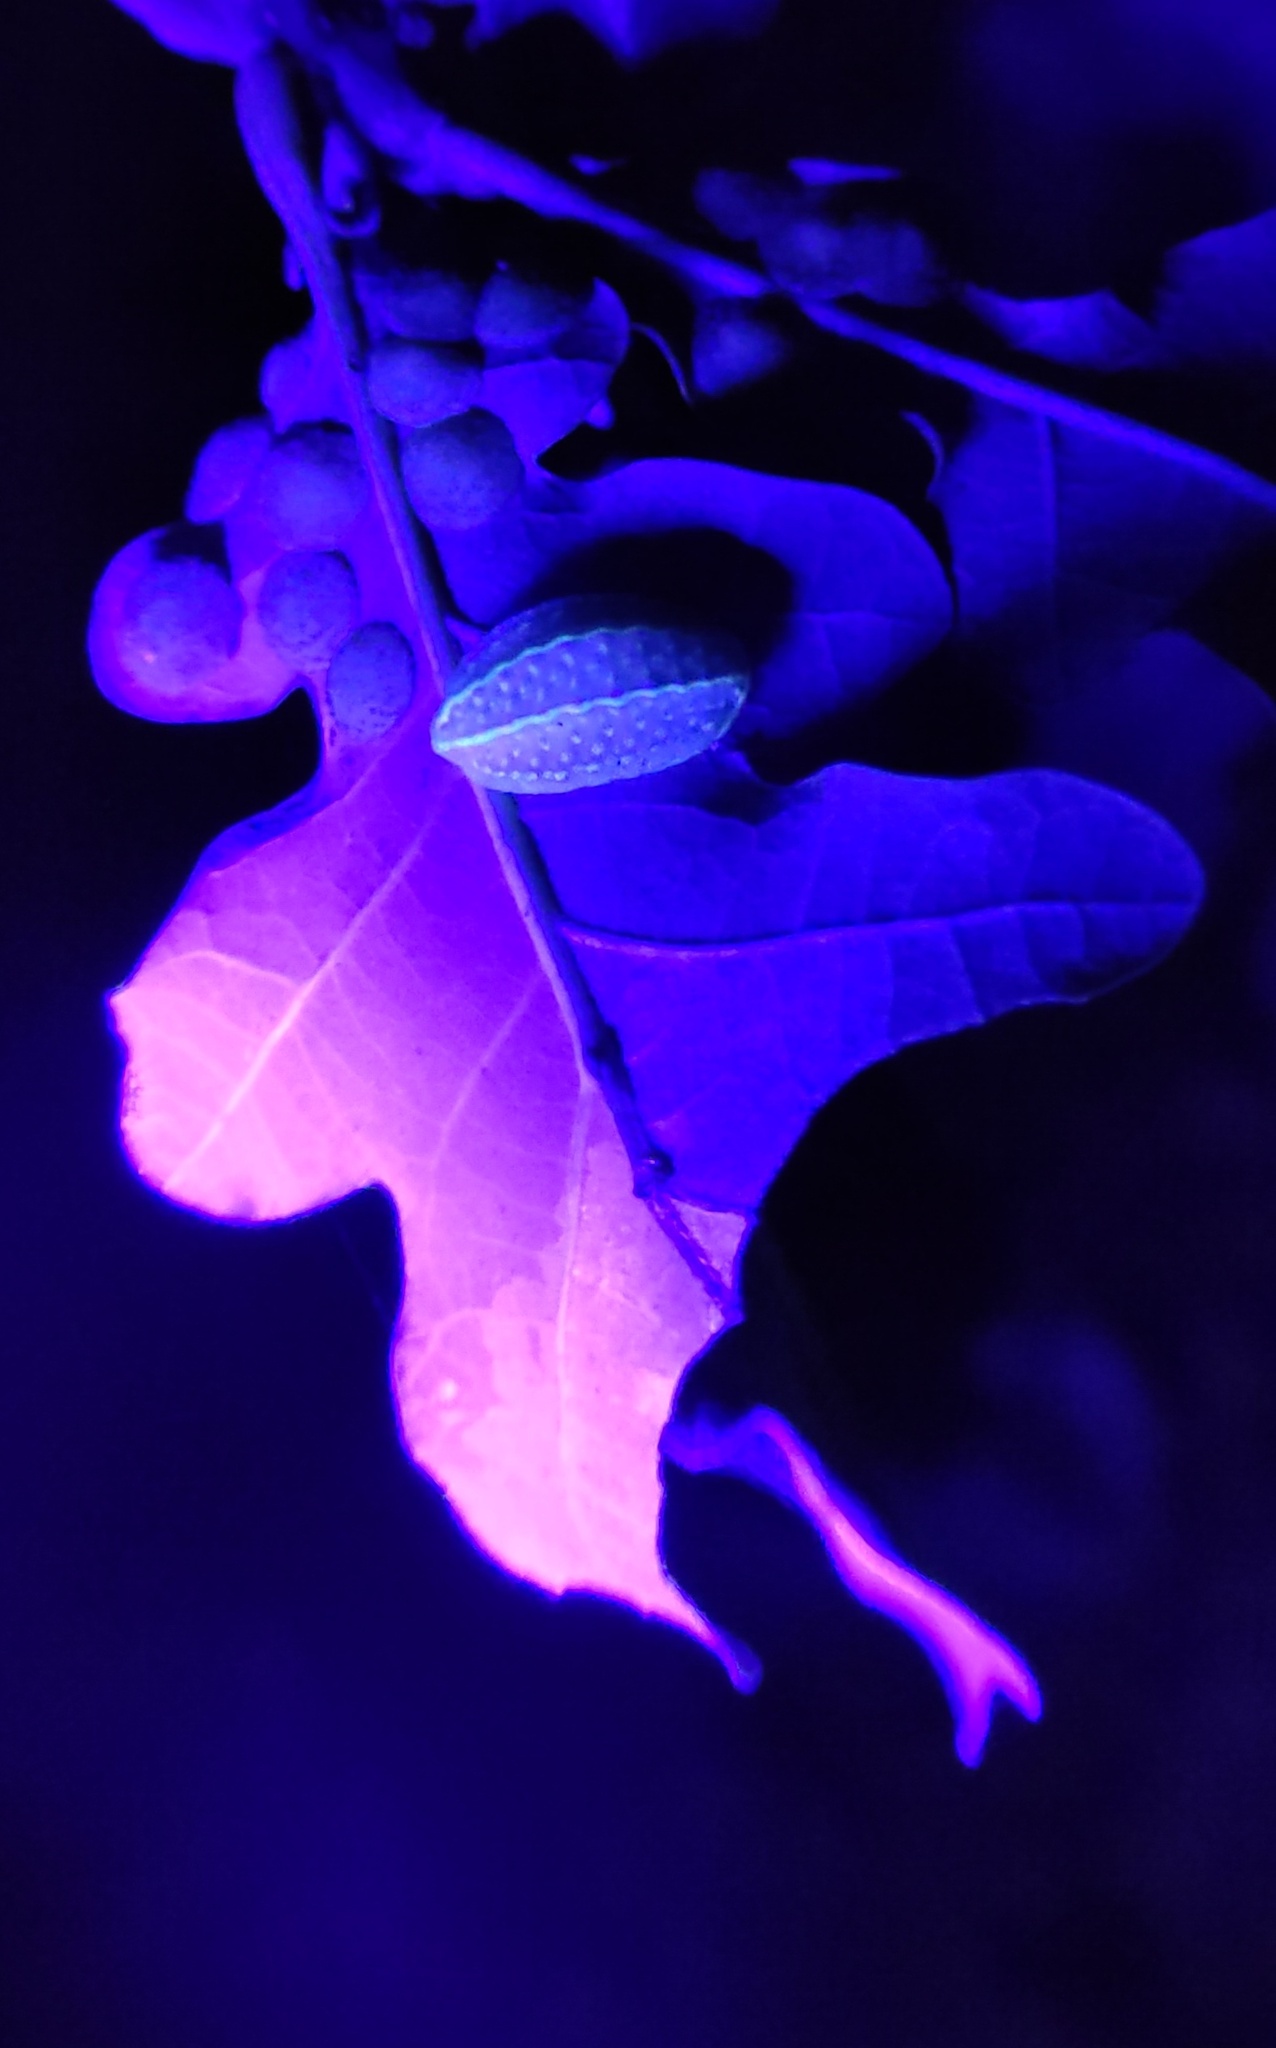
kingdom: Animalia
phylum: Arthropoda
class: Insecta
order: Lepidoptera
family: Limacodidae
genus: Apoda
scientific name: Apoda limacodes
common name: Festoon
